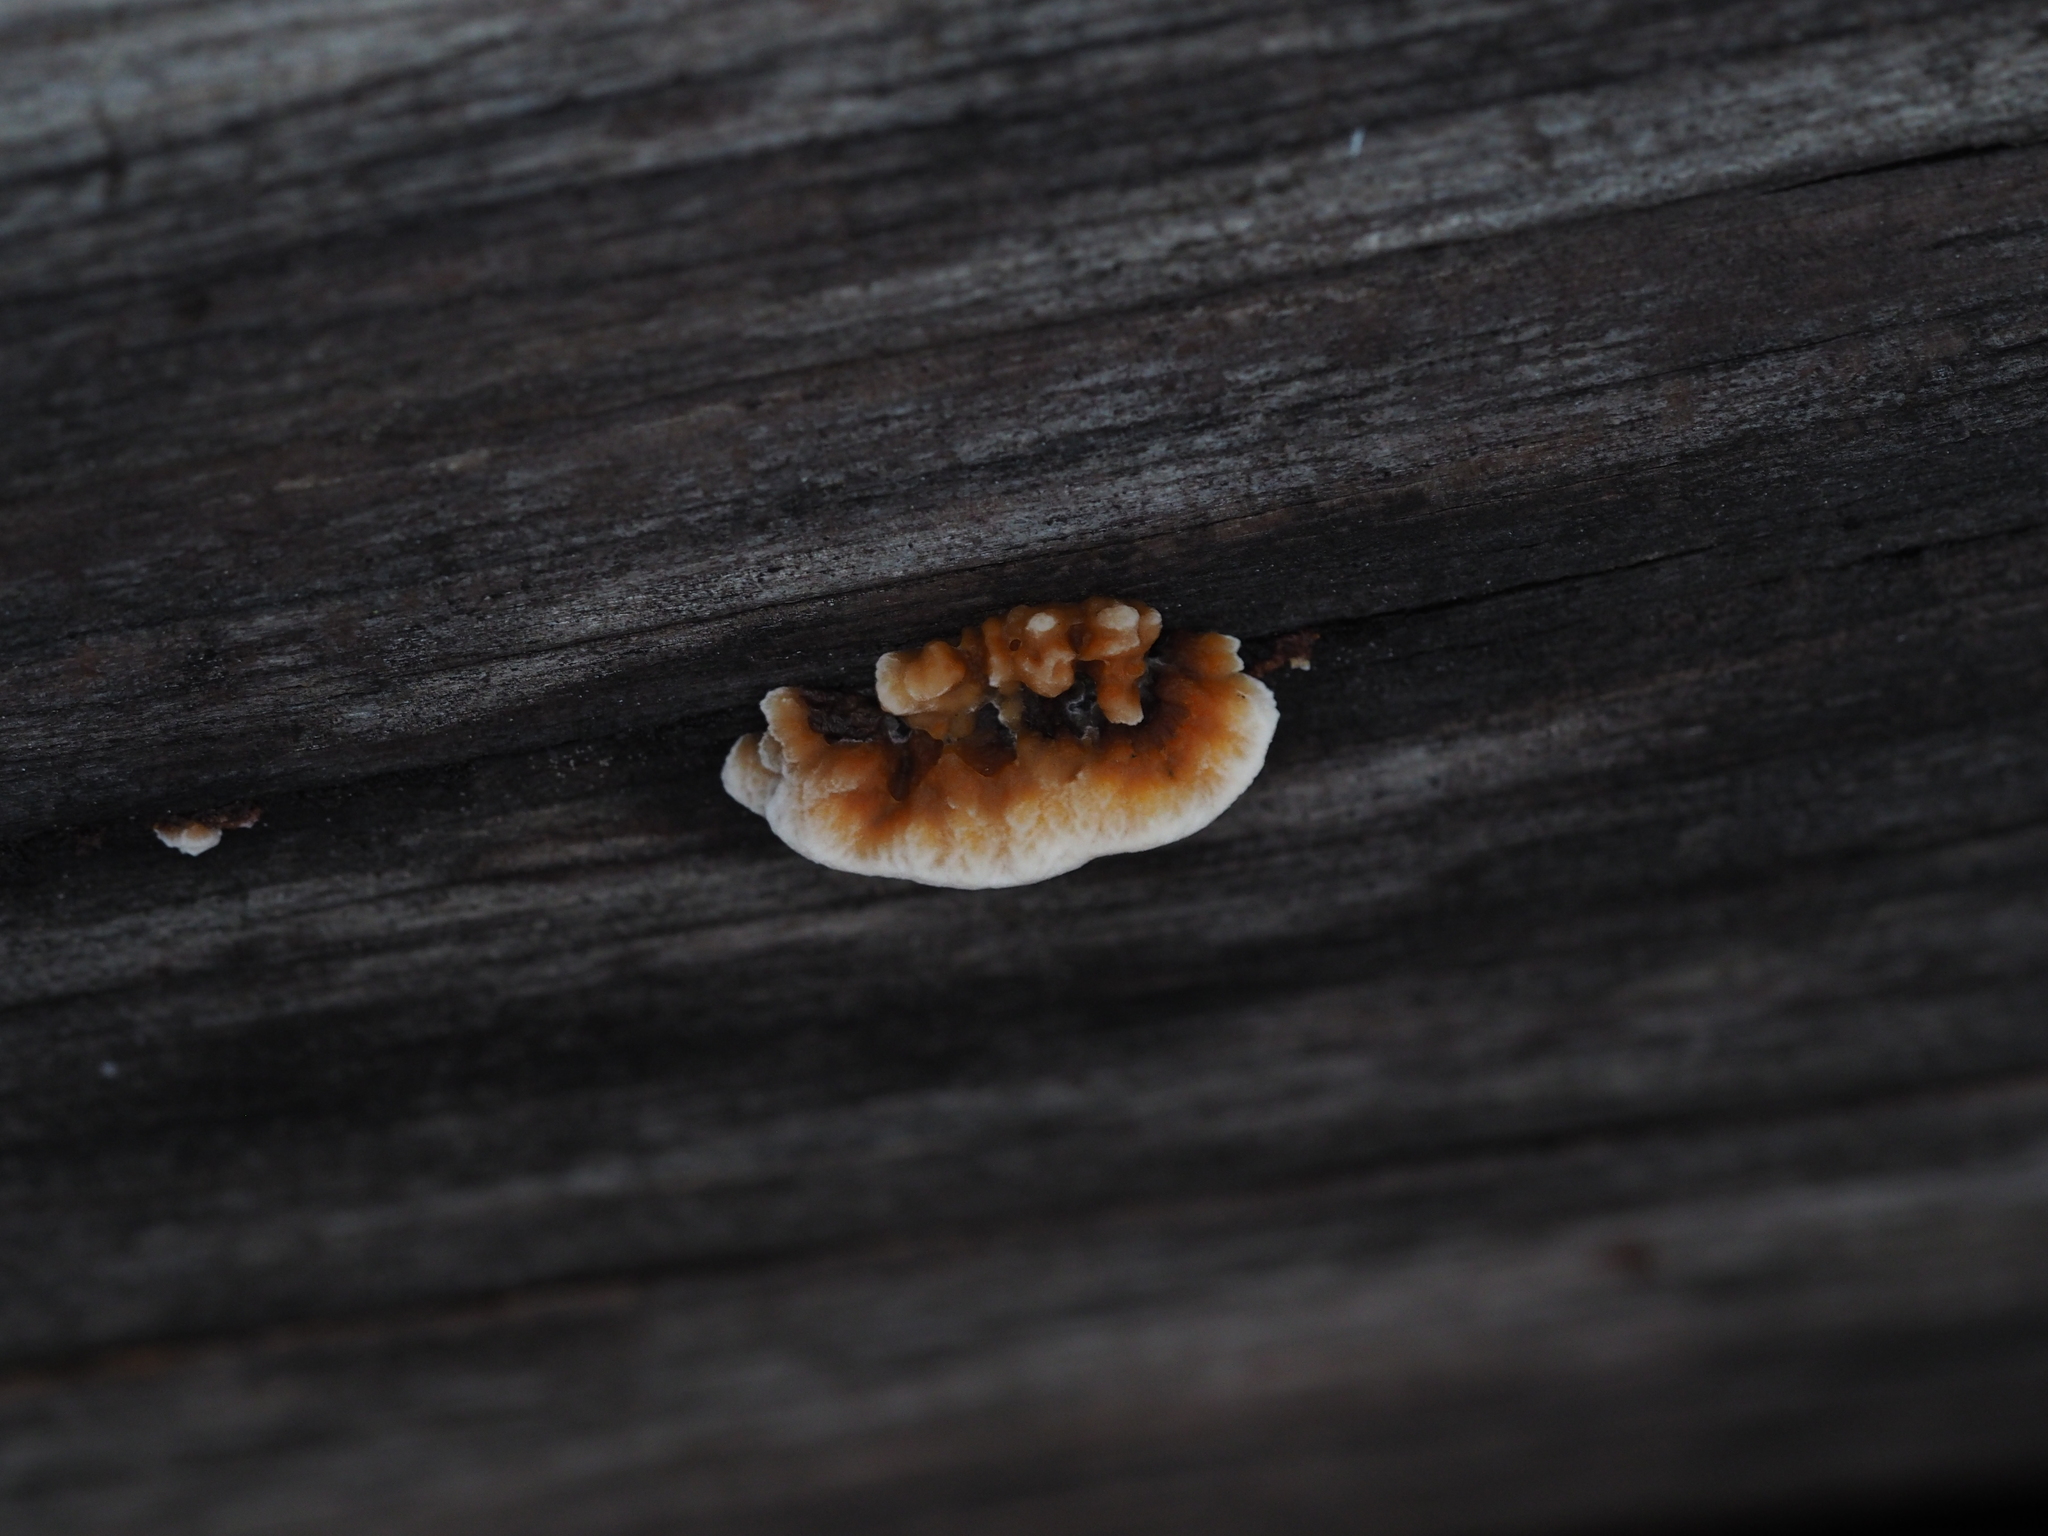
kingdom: Fungi
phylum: Basidiomycota
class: Agaricomycetes
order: Gloeophyllales
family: Gloeophyllaceae
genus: Gloeophyllum
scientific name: Gloeophyllum sepiarium
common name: Conifer mazegill
